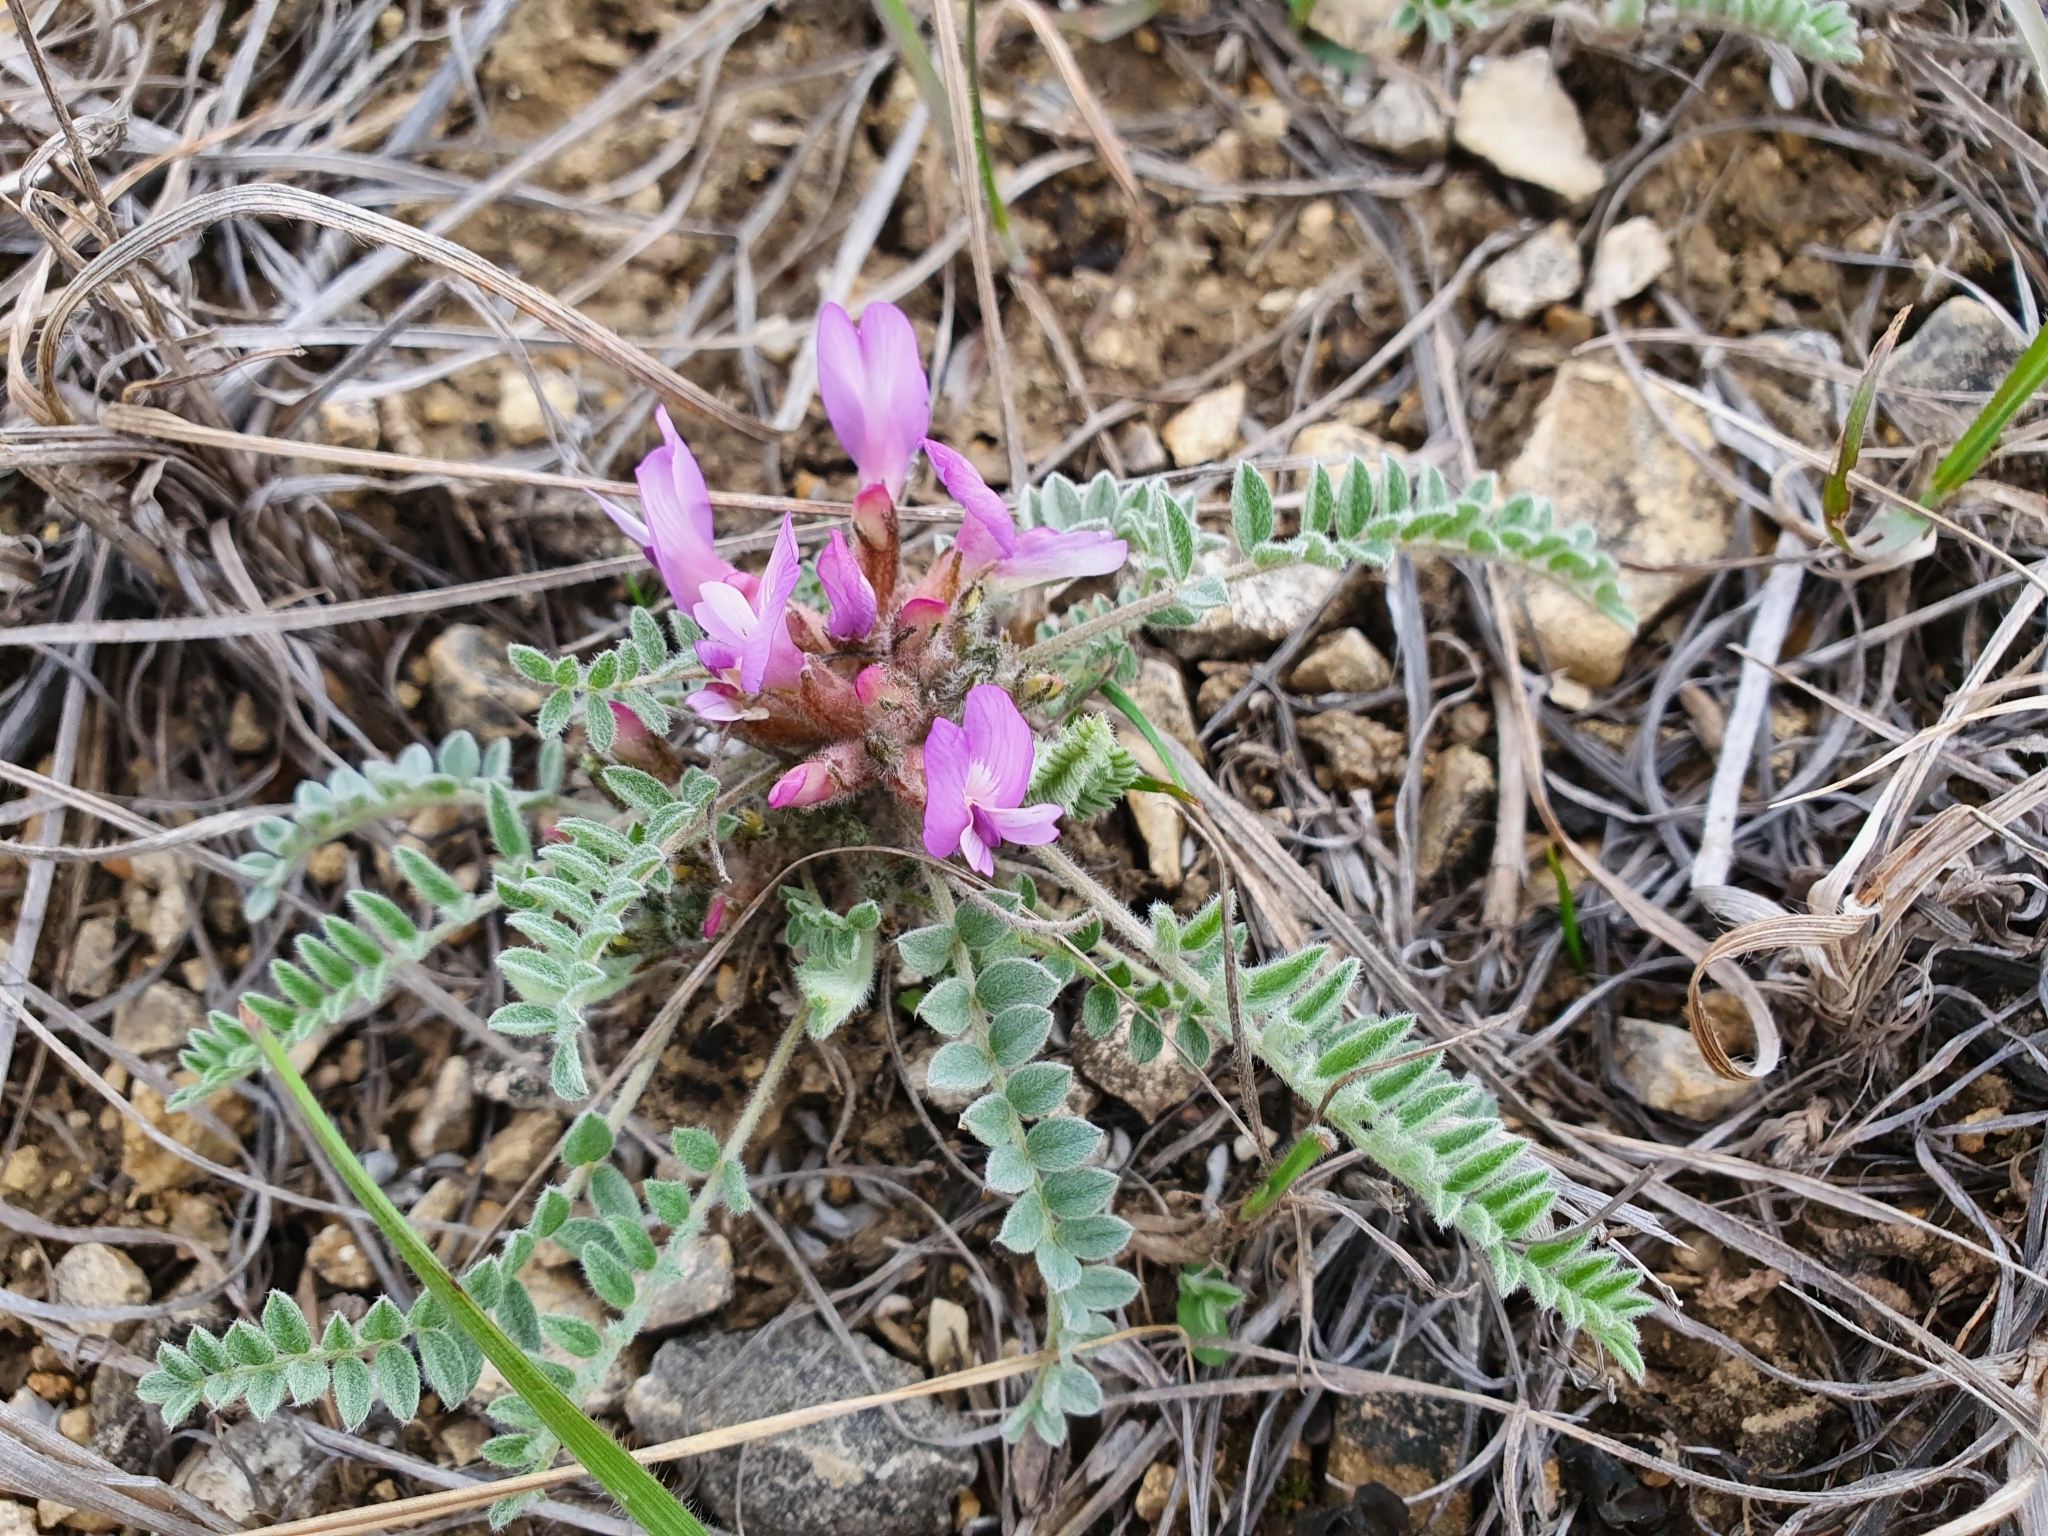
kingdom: Plantae
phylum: Tracheophyta
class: Magnoliopsida
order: Fabales
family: Fabaceae
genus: Astragalus
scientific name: Astragalus testiculatus
